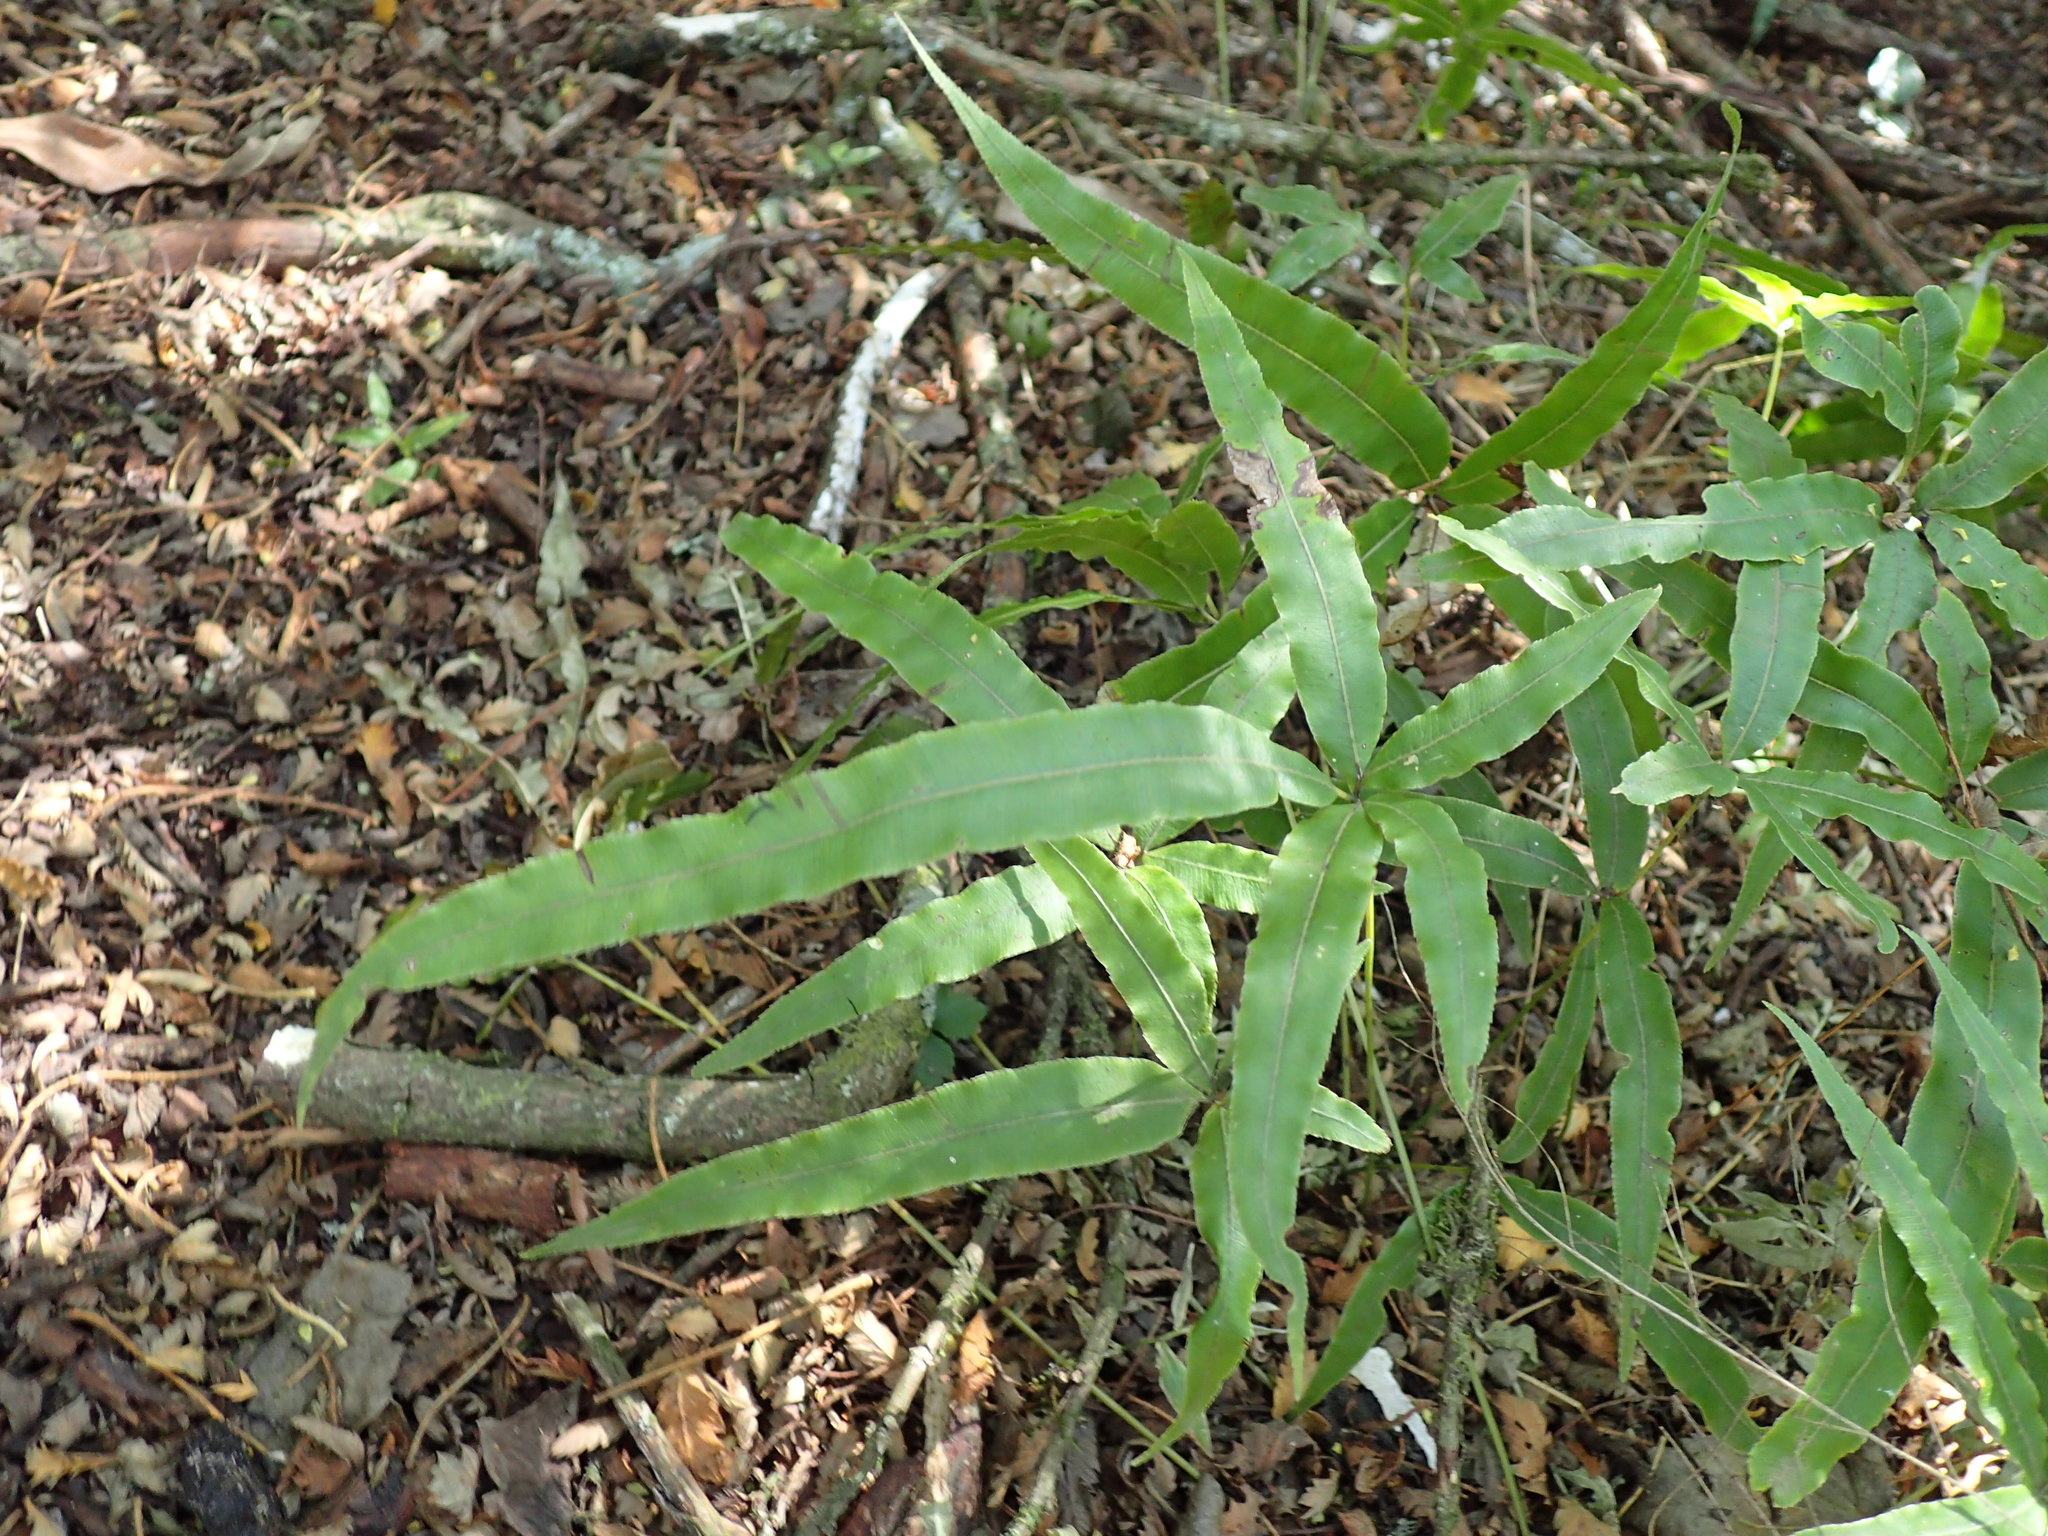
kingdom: Plantae
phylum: Tracheophyta
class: Polypodiopsida
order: Polypodiales
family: Pteridaceae
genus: Pteris
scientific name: Pteris cretica
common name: Ribbon fern
